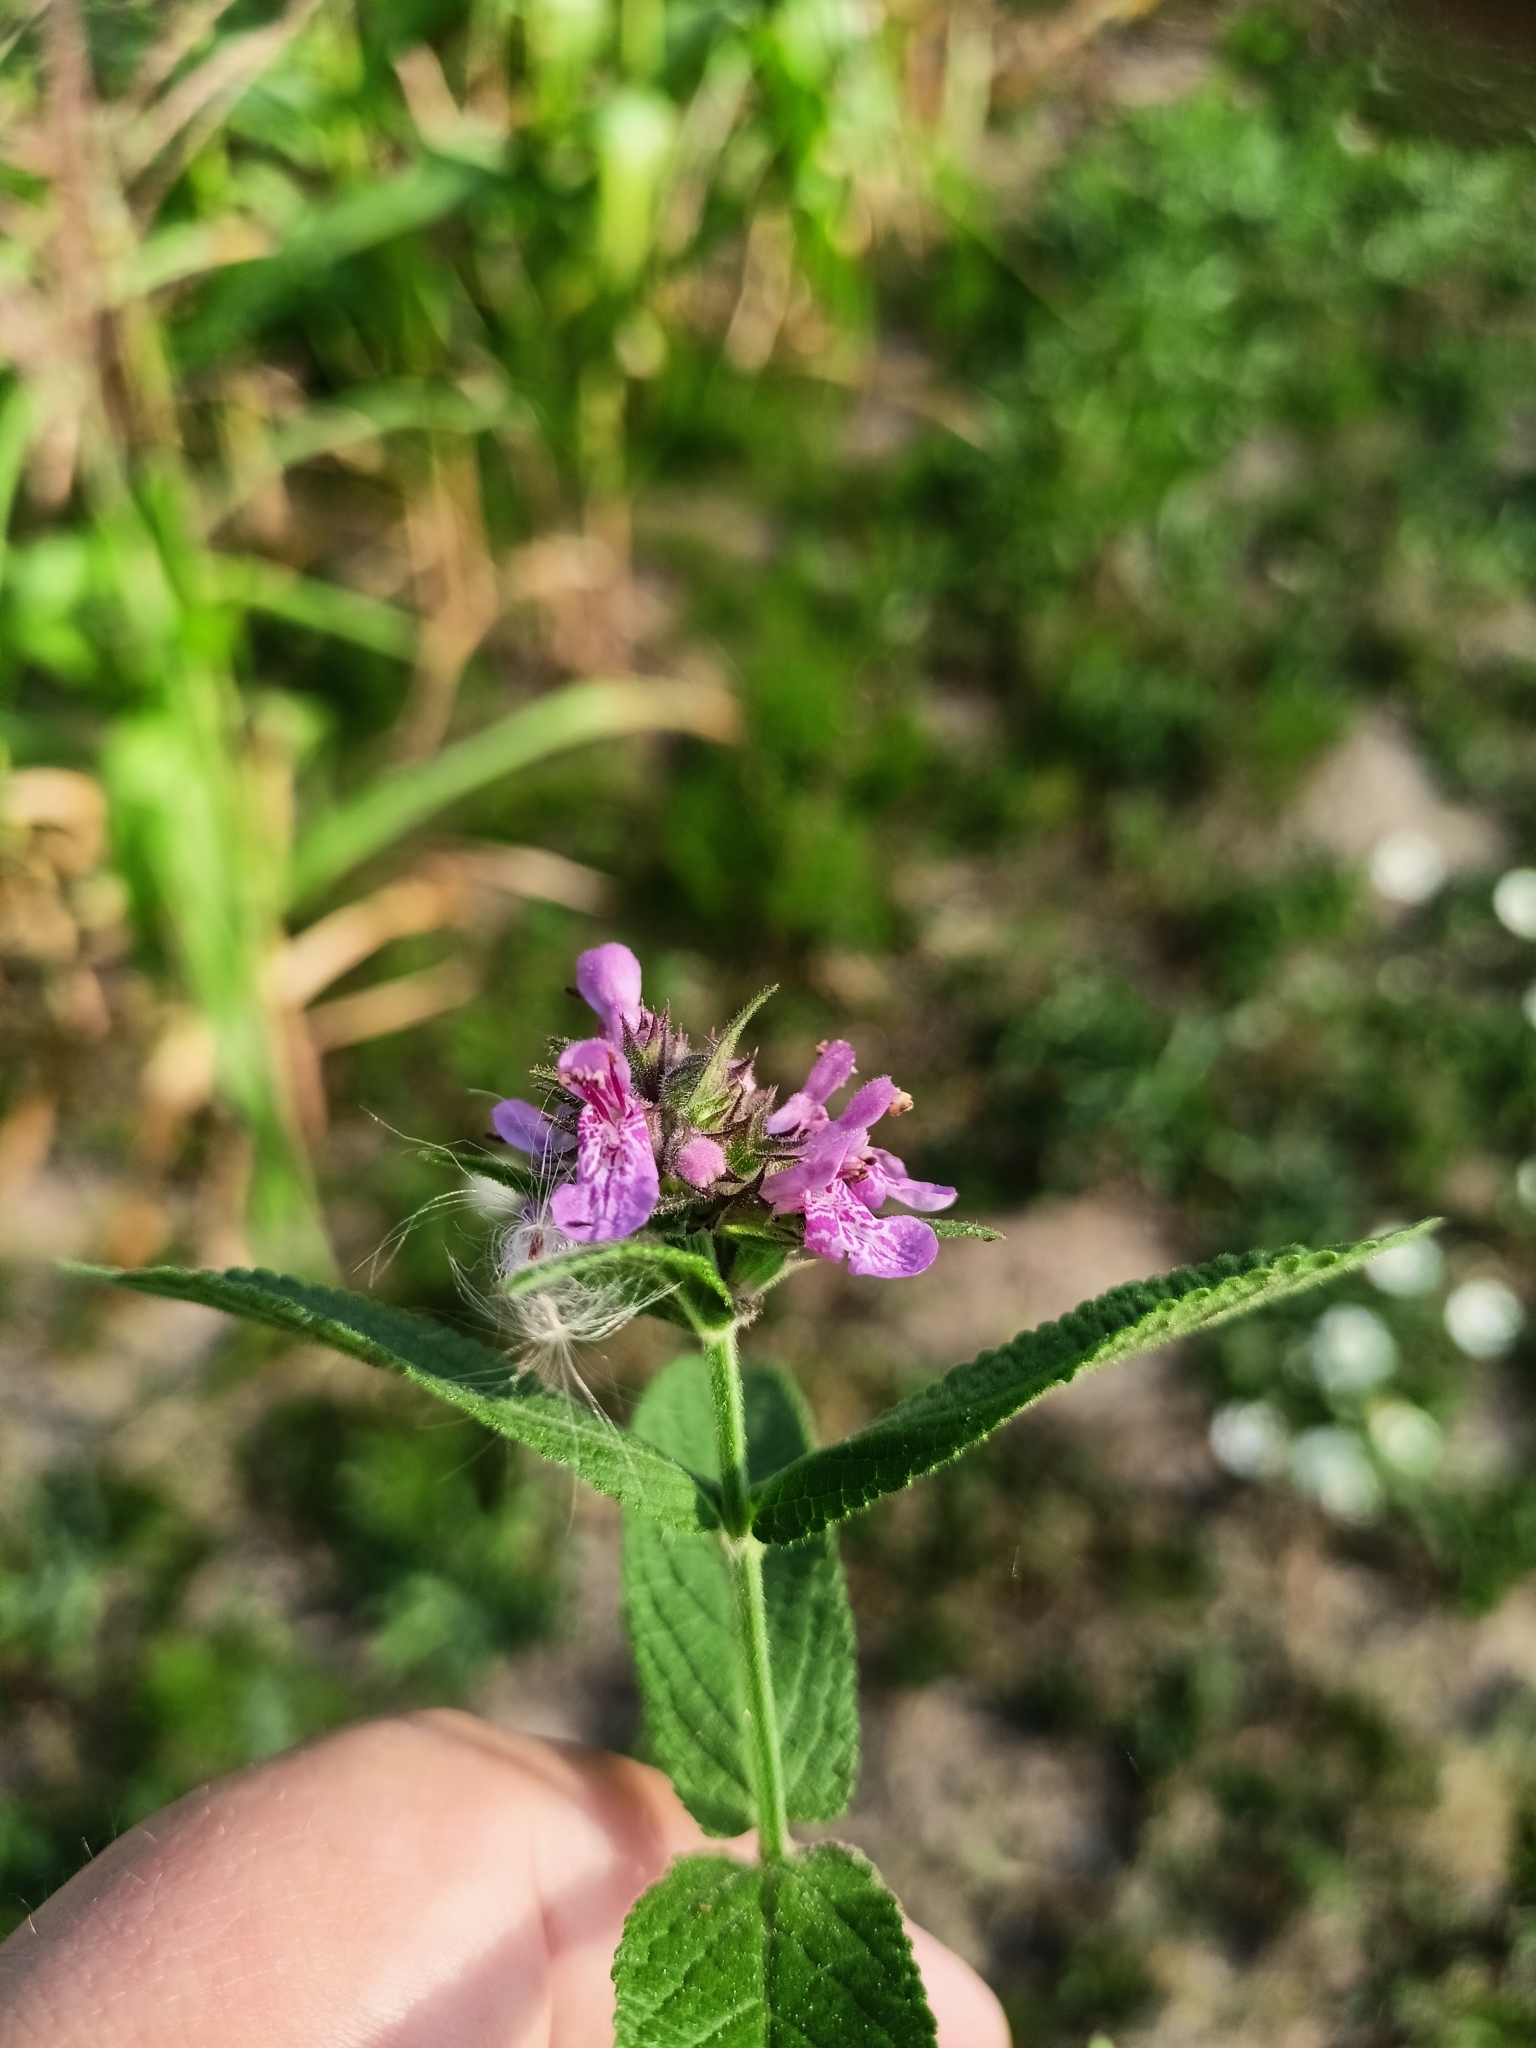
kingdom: Plantae
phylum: Tracheophyta
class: Magnoliopsida
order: Lamiales
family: Lamiaceae
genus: Stachys
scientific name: Stachys palustris
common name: Marsh woundwort
